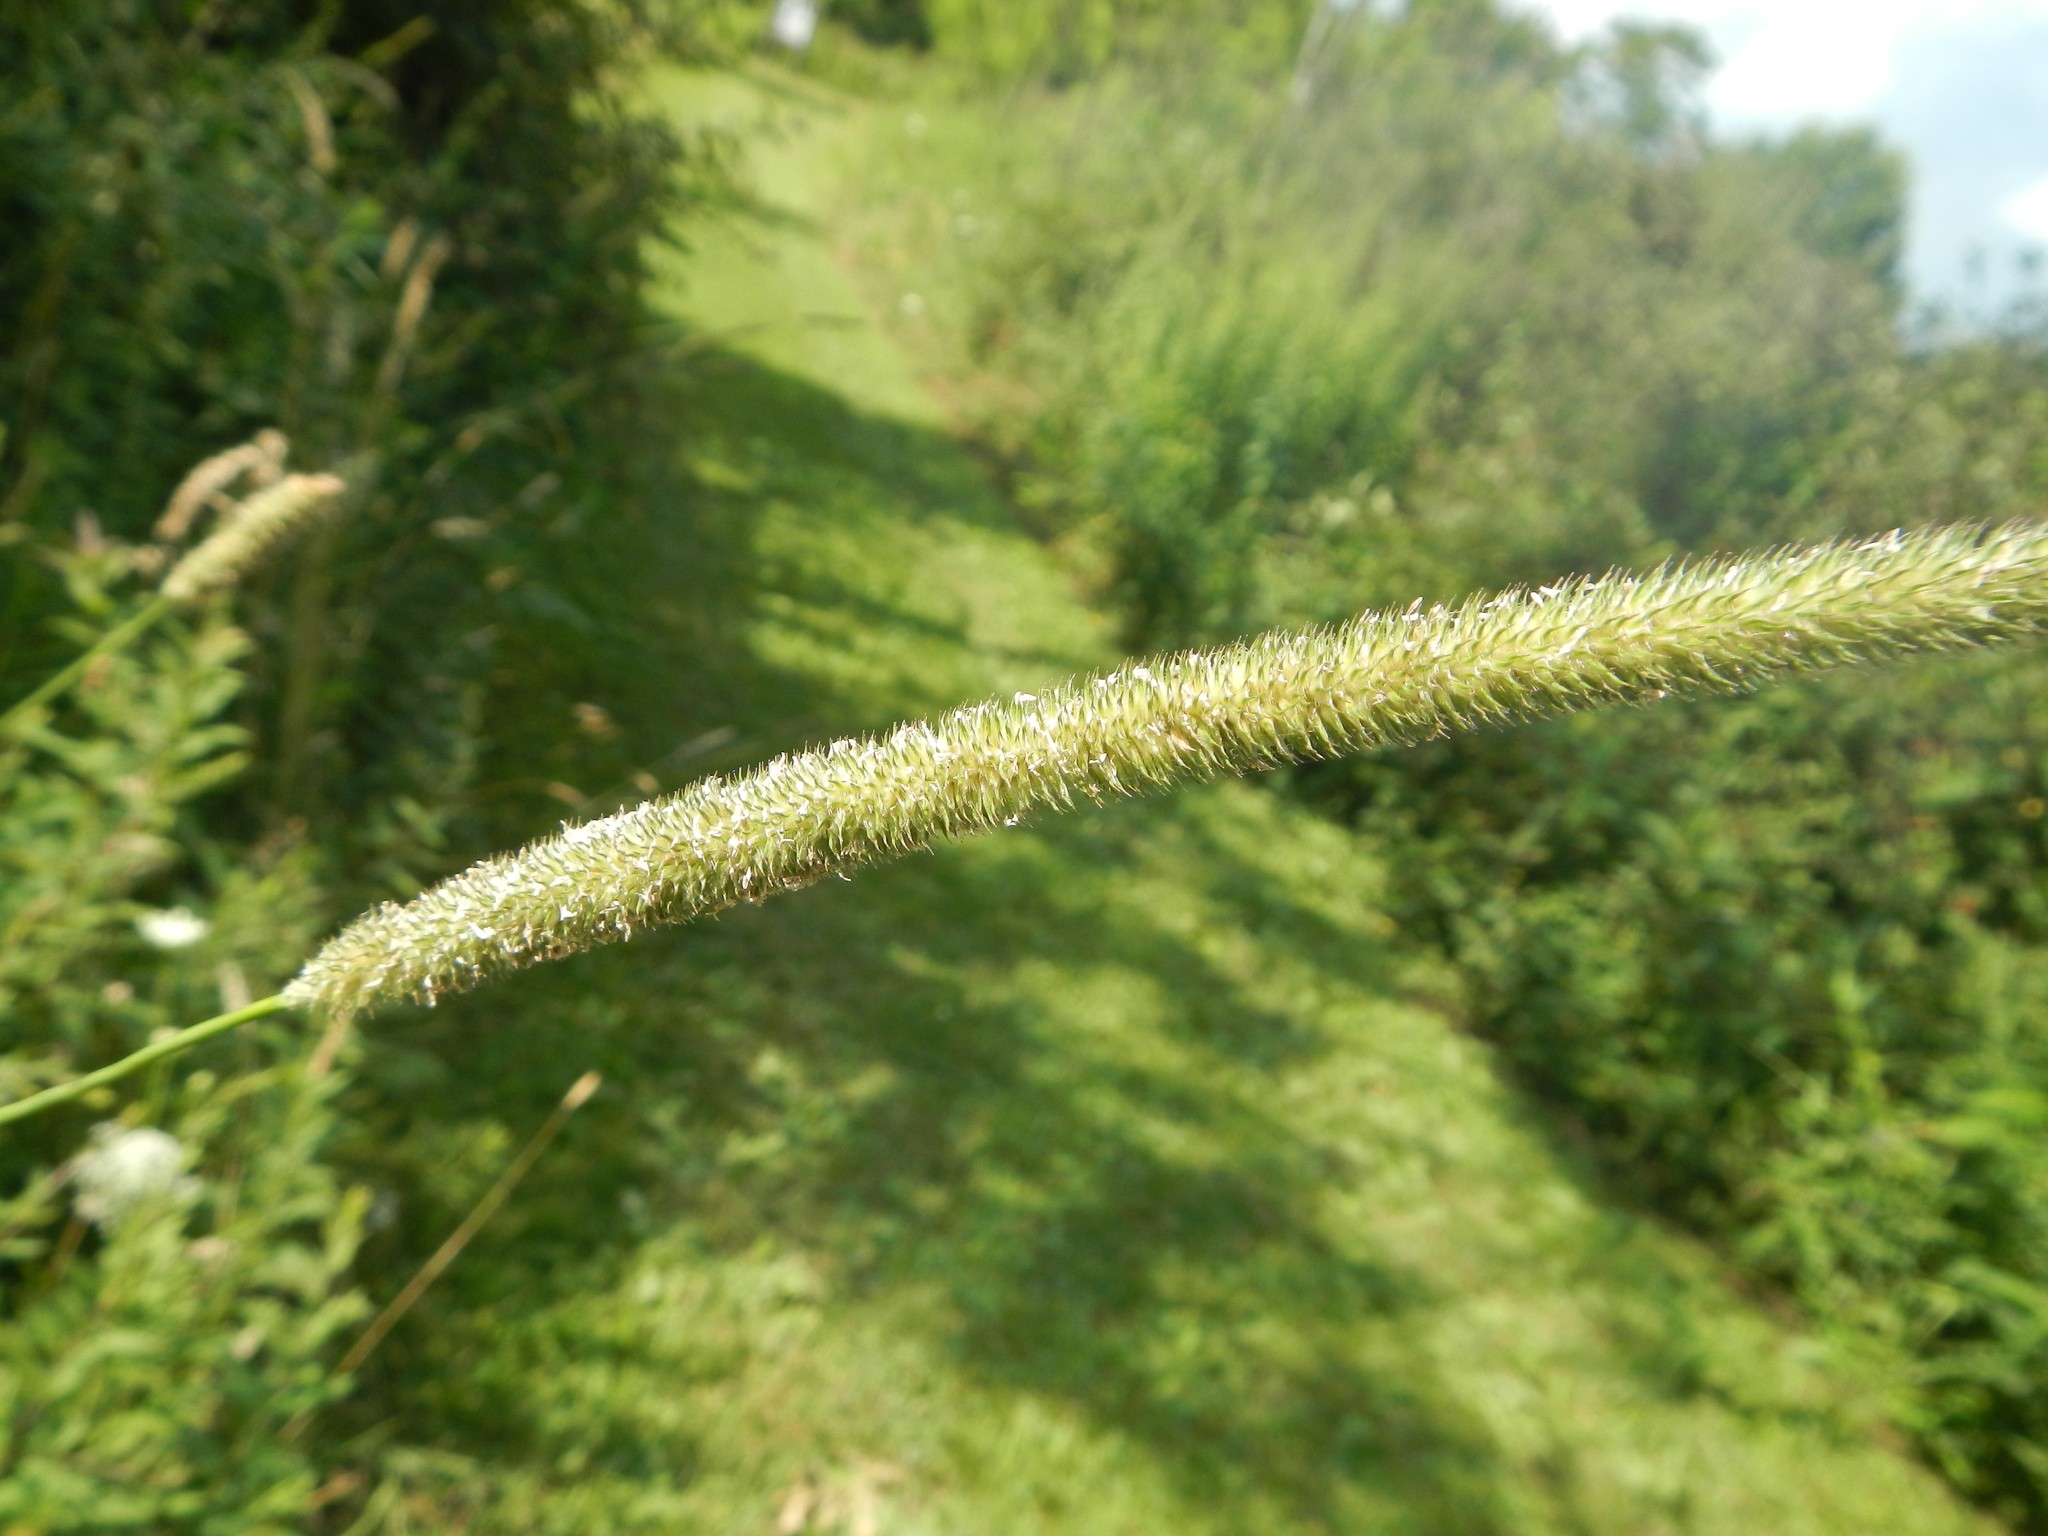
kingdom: Plantae
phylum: Tracheophyta
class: Liliopsida
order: Poales
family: Poaceae
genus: Phleum
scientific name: Phleum pratense
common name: Timothy grass
